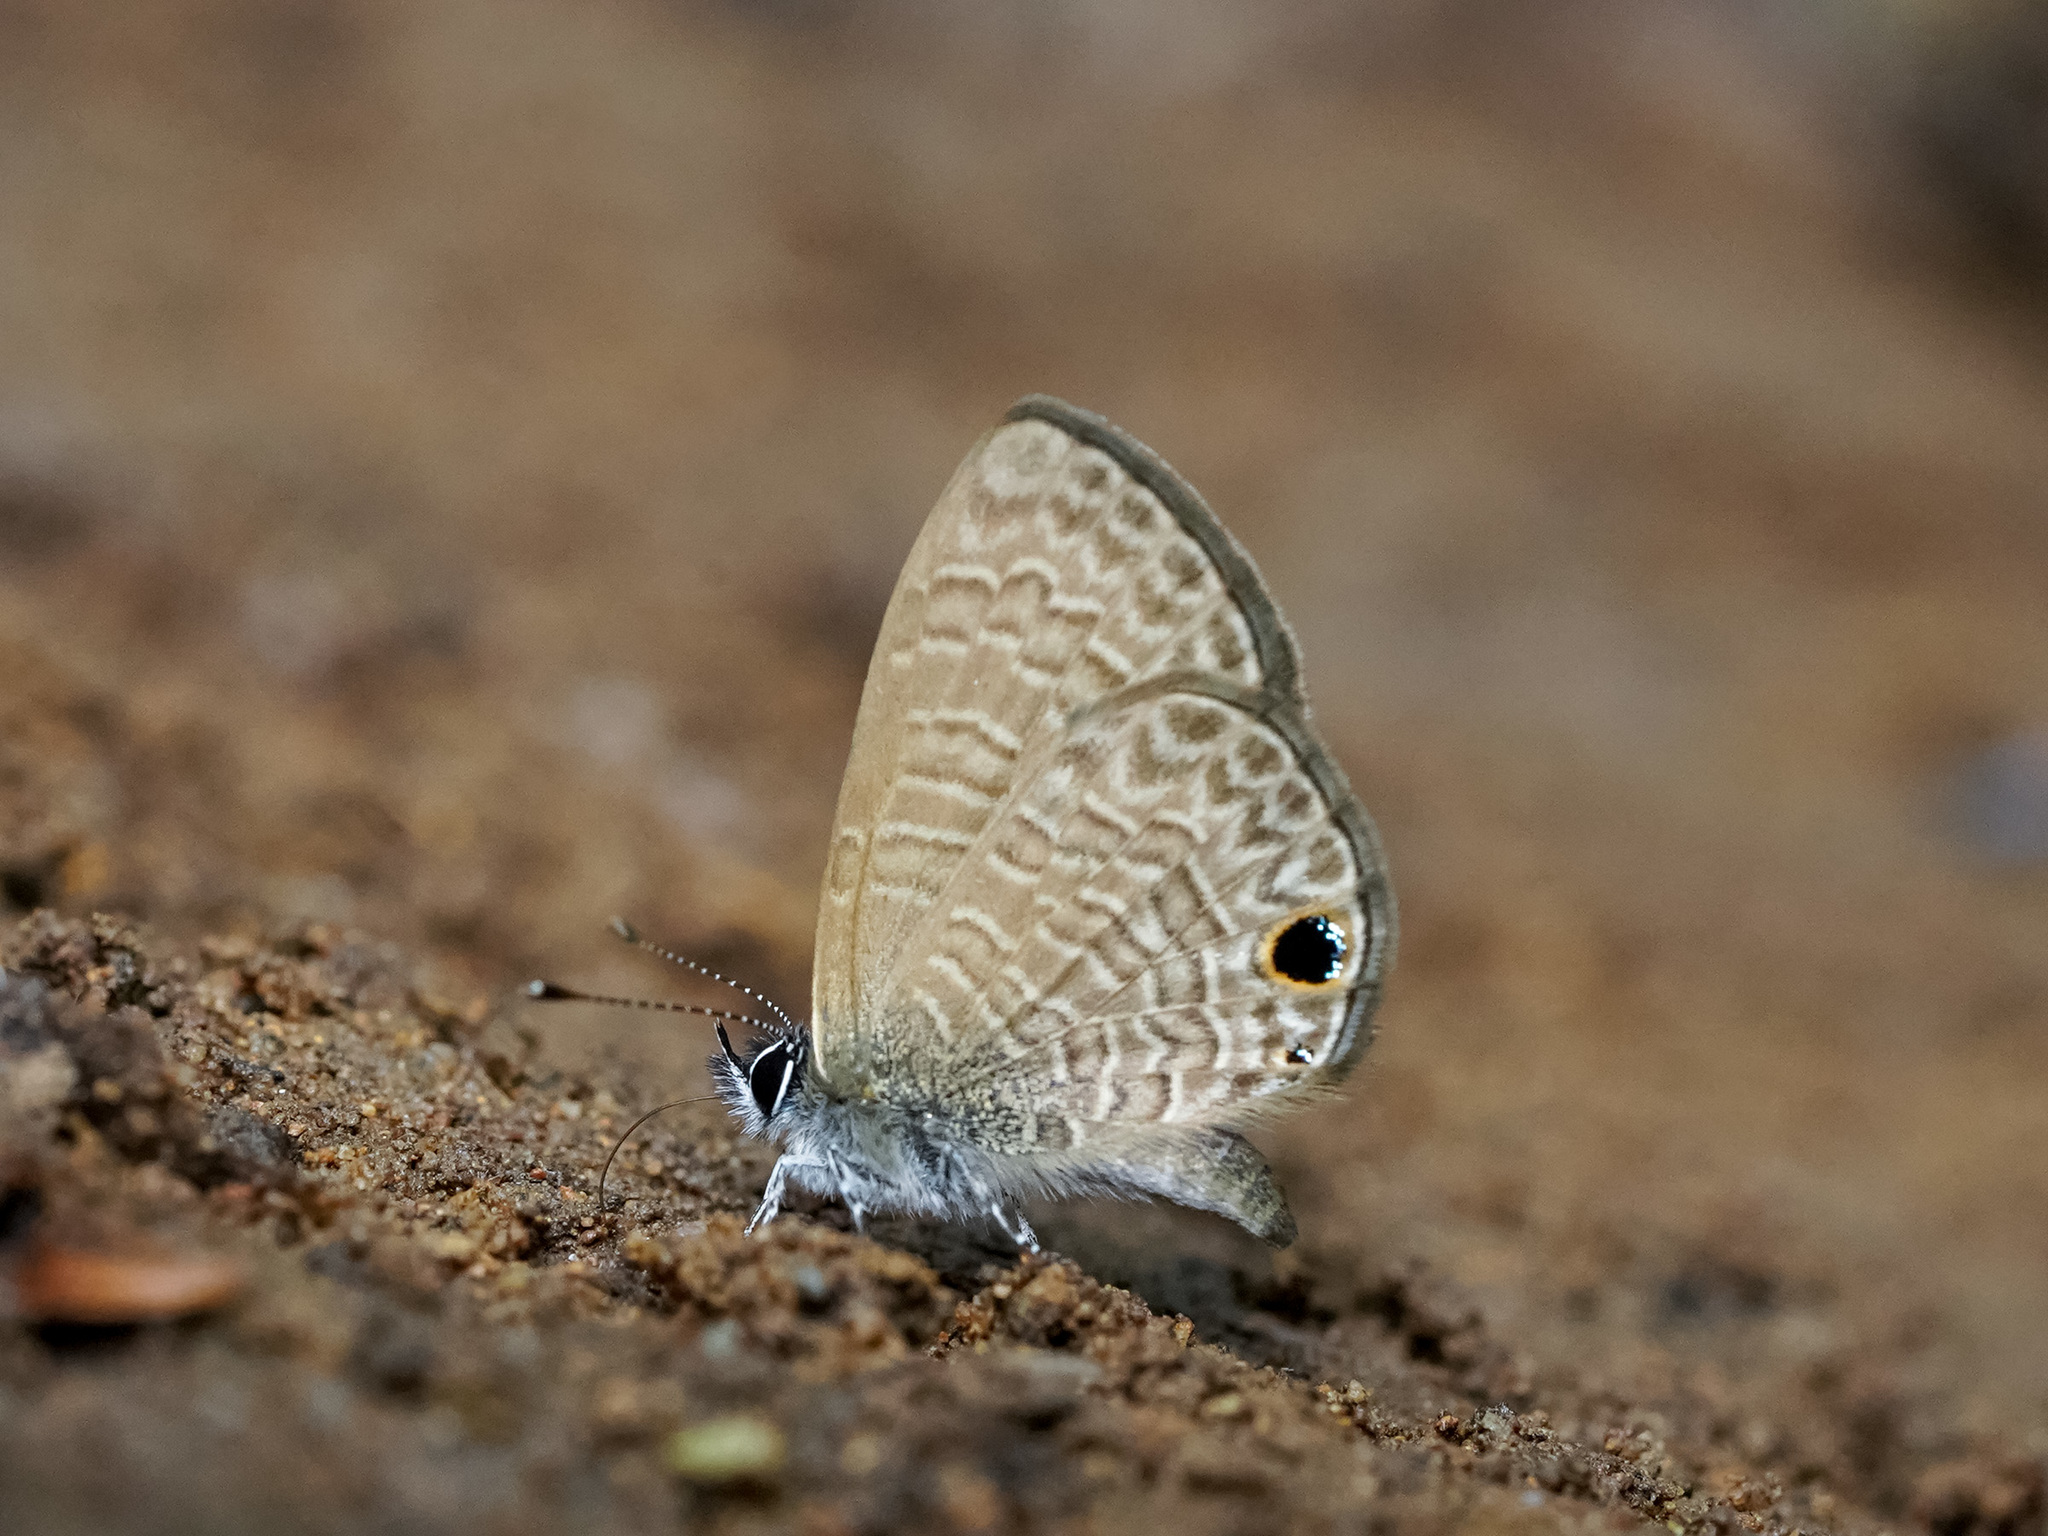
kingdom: Animalia
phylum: Arthropoda
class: Insecta
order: Lepidoptera
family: Lycaenidae
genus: Prosotas
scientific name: Prosotas dubiosa
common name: Tailless lineblue
